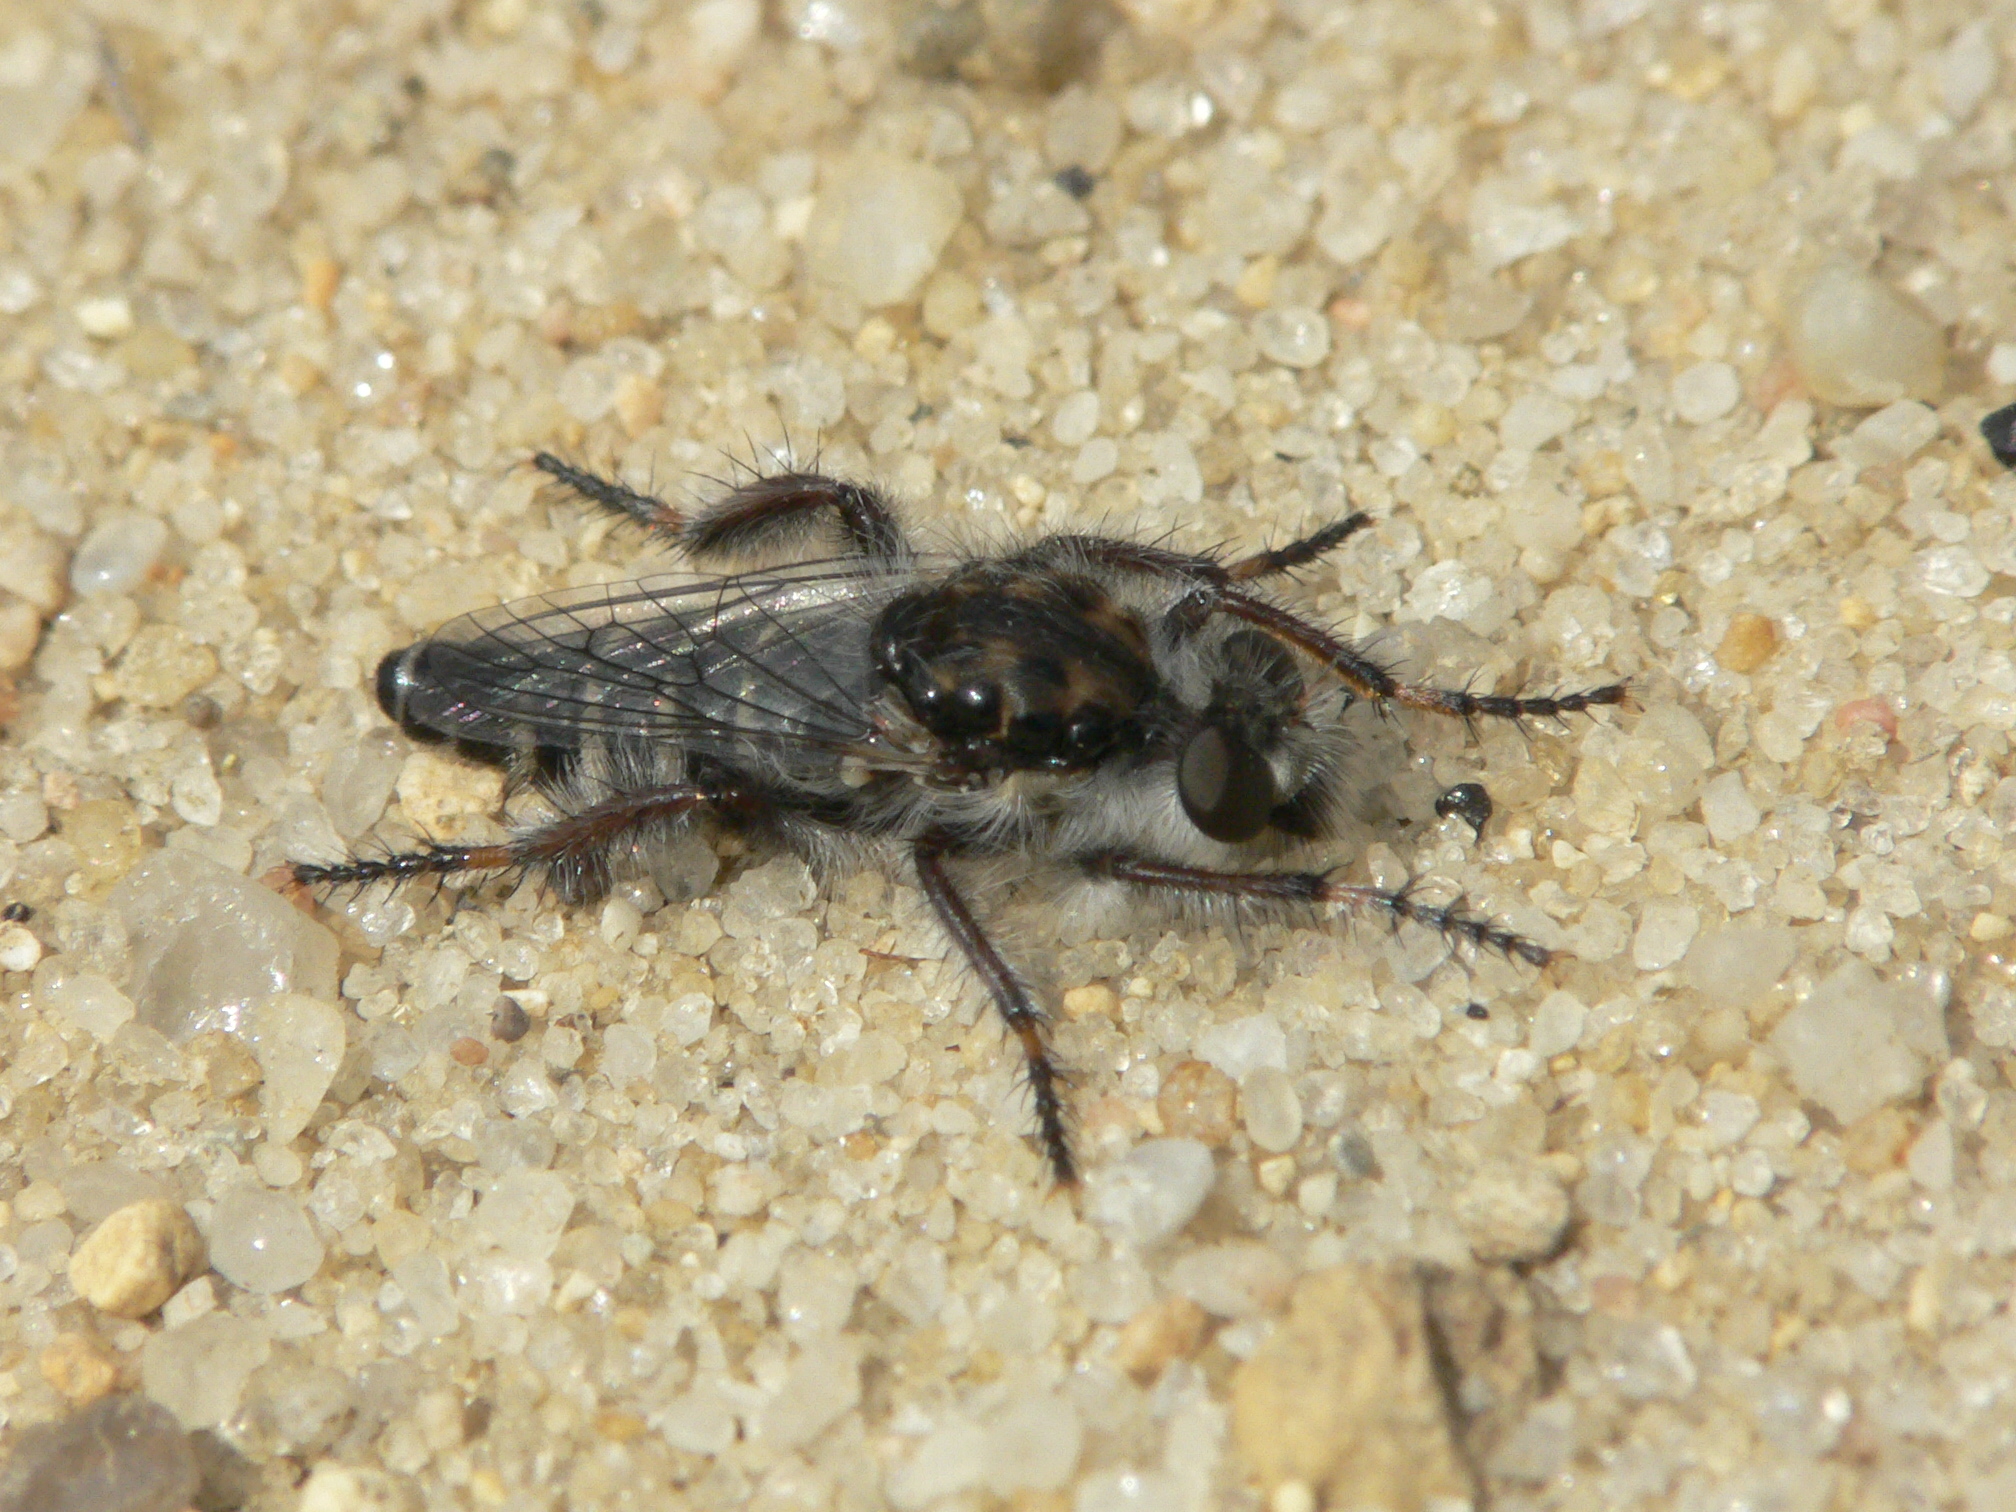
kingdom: Animalia
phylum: Arthropoda
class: Insecta
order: Diptera
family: Asilidae
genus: Cyrtopogon
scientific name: Cyrtopogon marginalis
